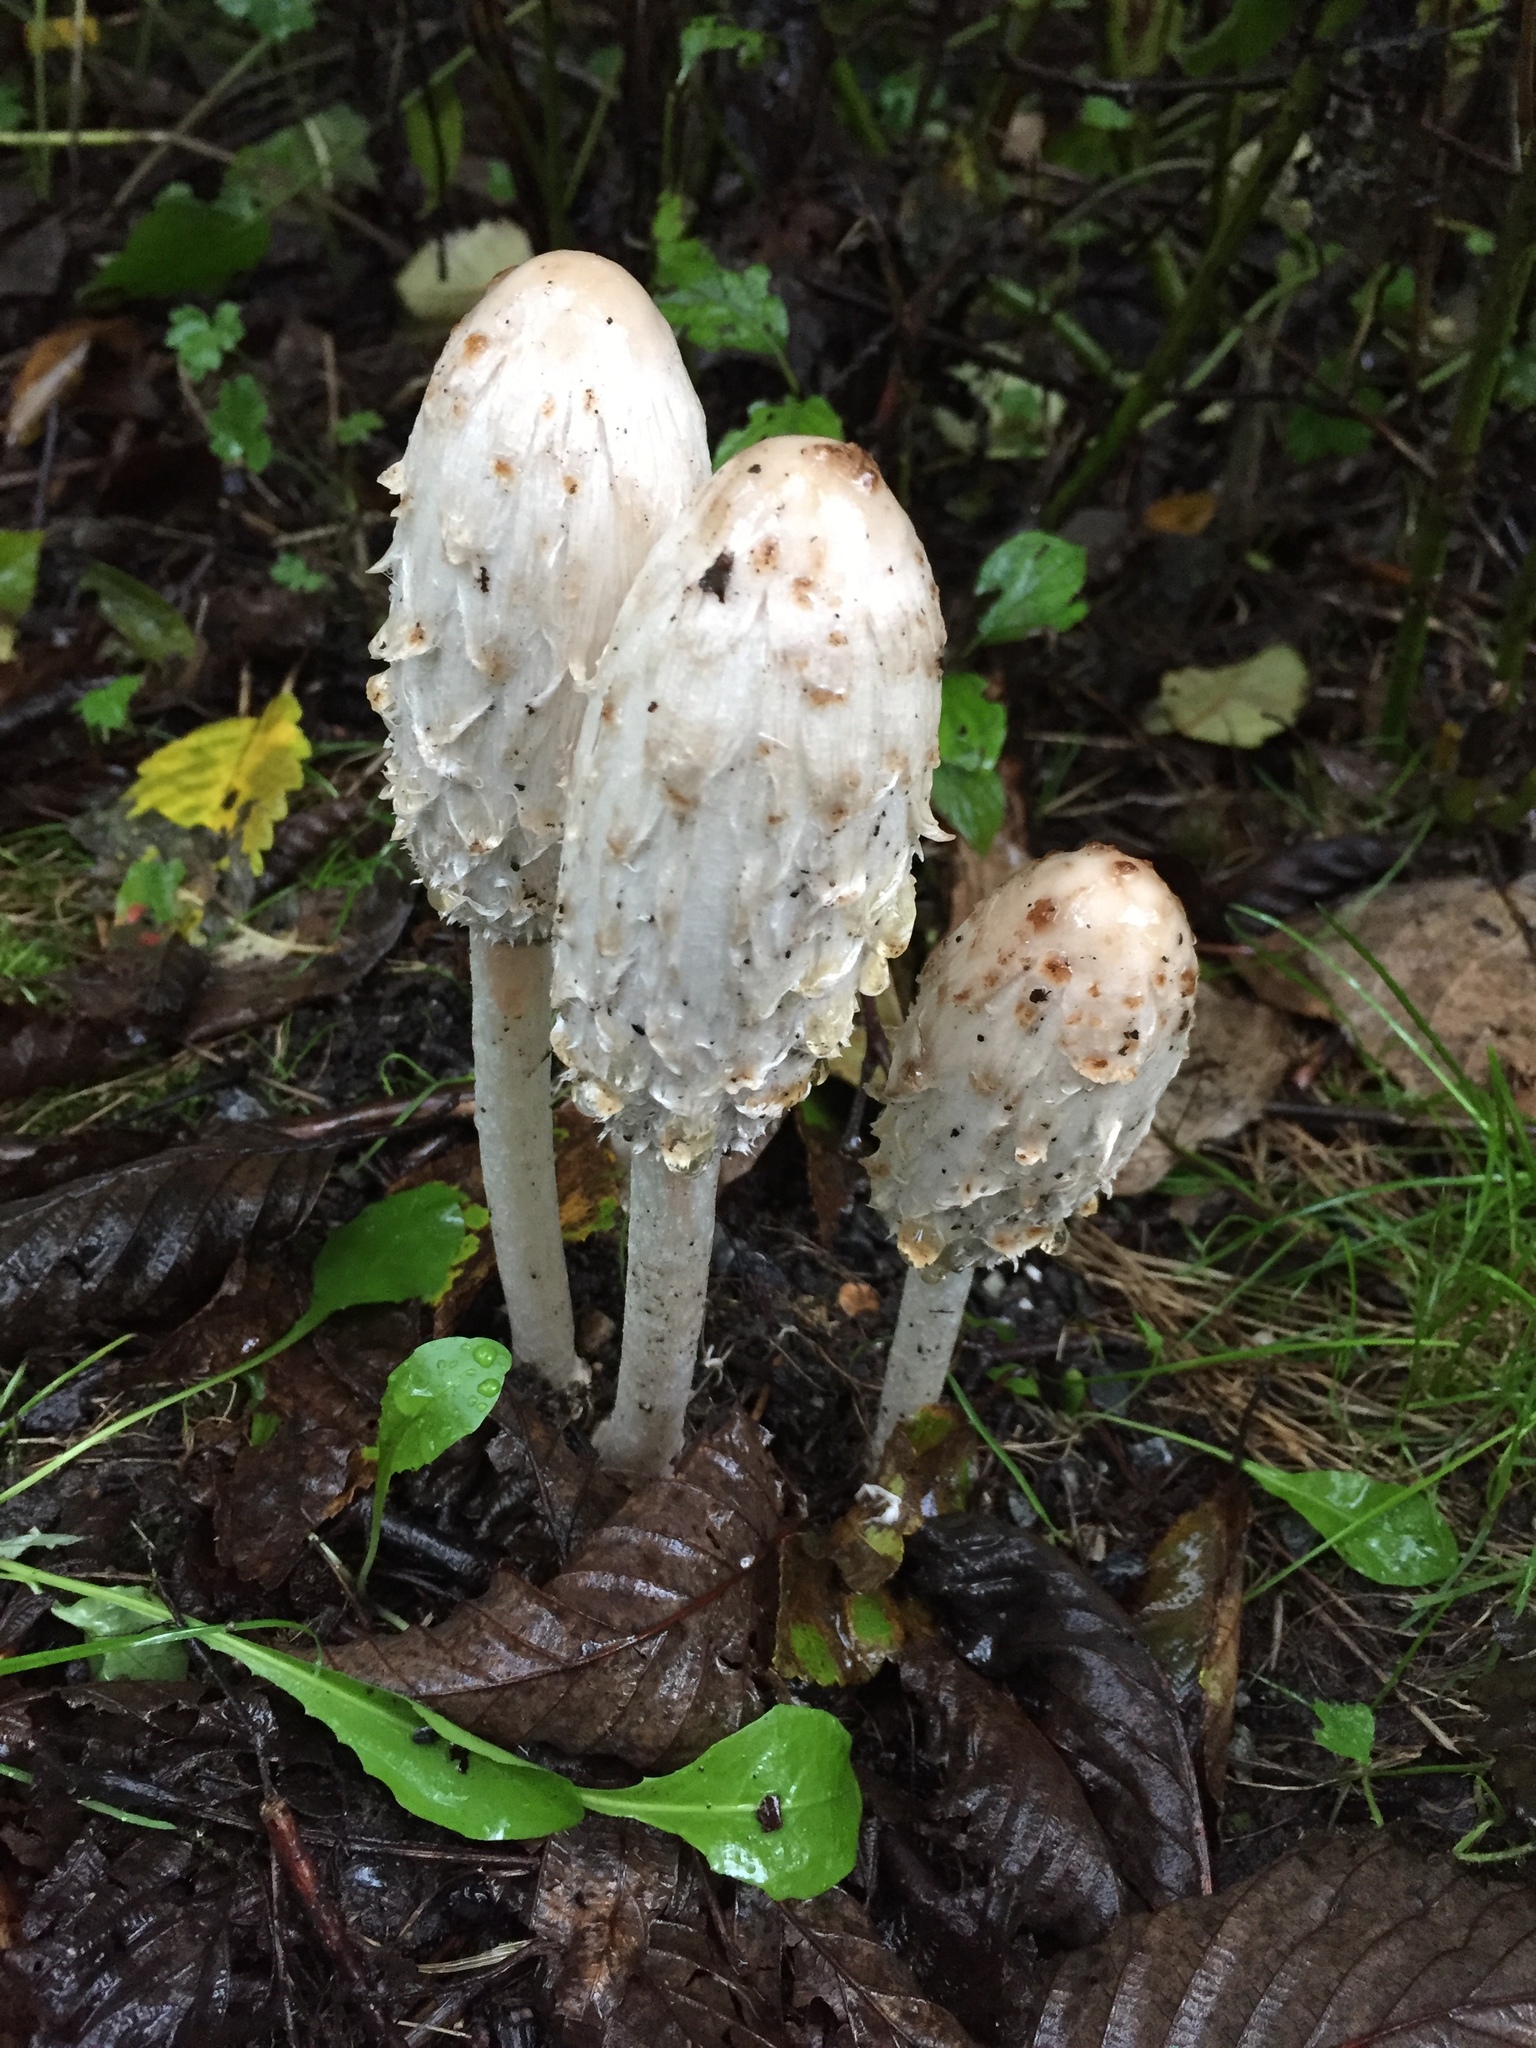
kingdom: Fungi
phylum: Basidiomycota
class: Agaricomycetes
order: Agaricales
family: Agaricaceae
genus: Coprinus
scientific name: Coprinus comatus
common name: Lawyer's wig
